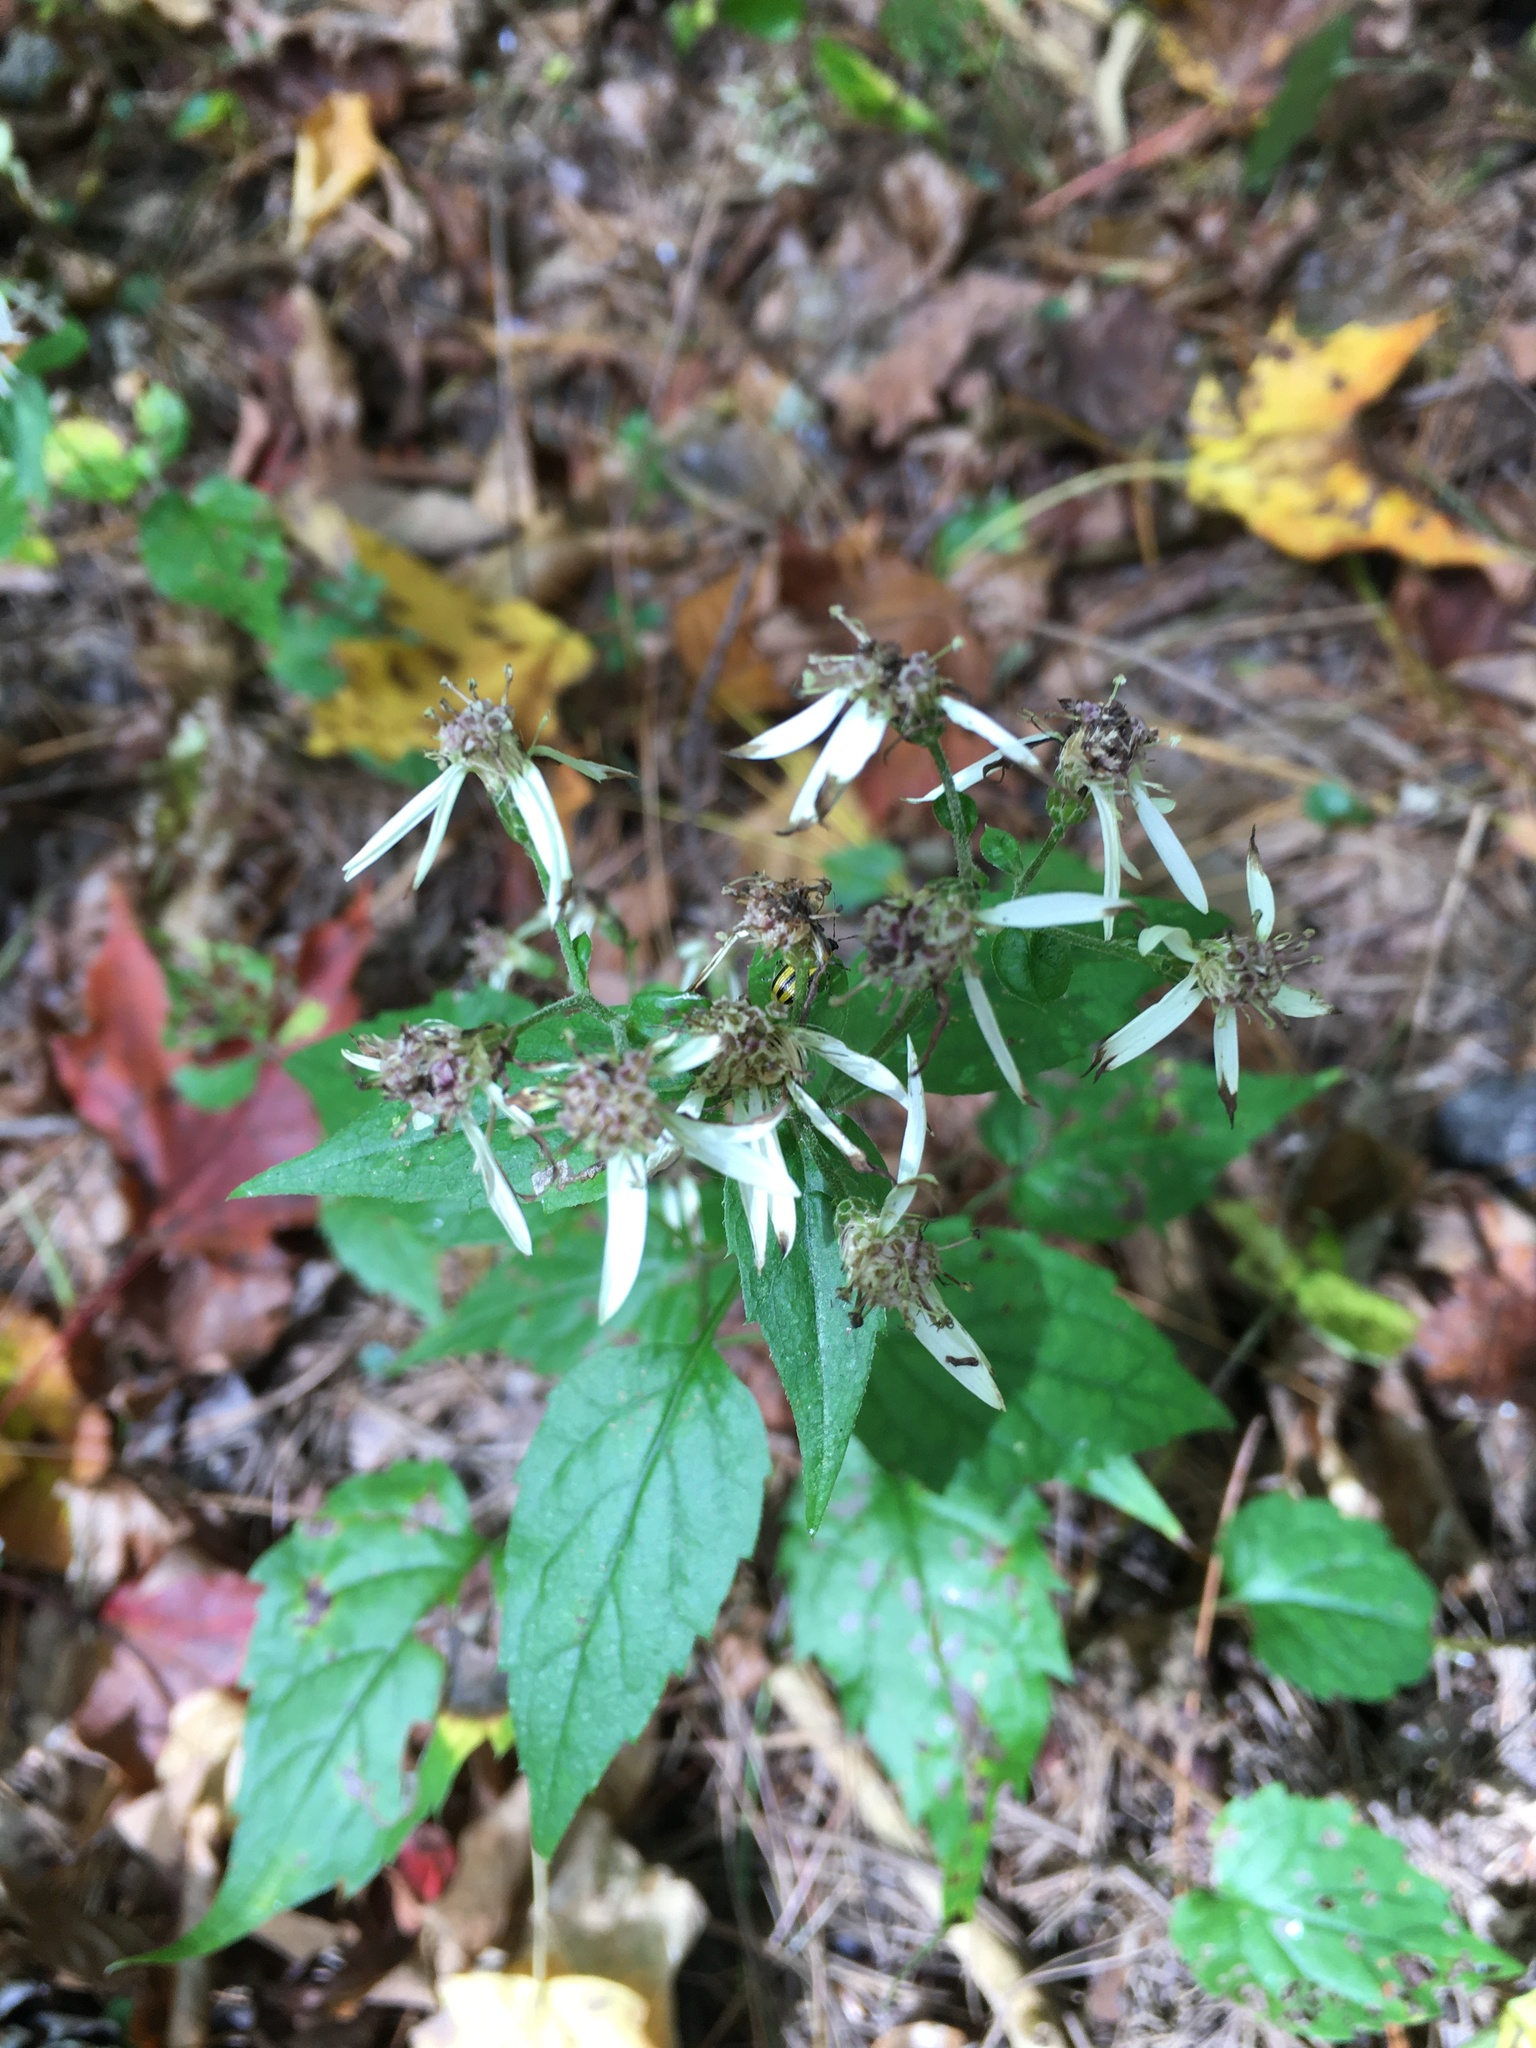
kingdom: Plantae
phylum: Tracheophyta
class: Magnoliopsida
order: Asterales
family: Asteraceae
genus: Eurybia
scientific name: Eurybia divaricata
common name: White wood aster
